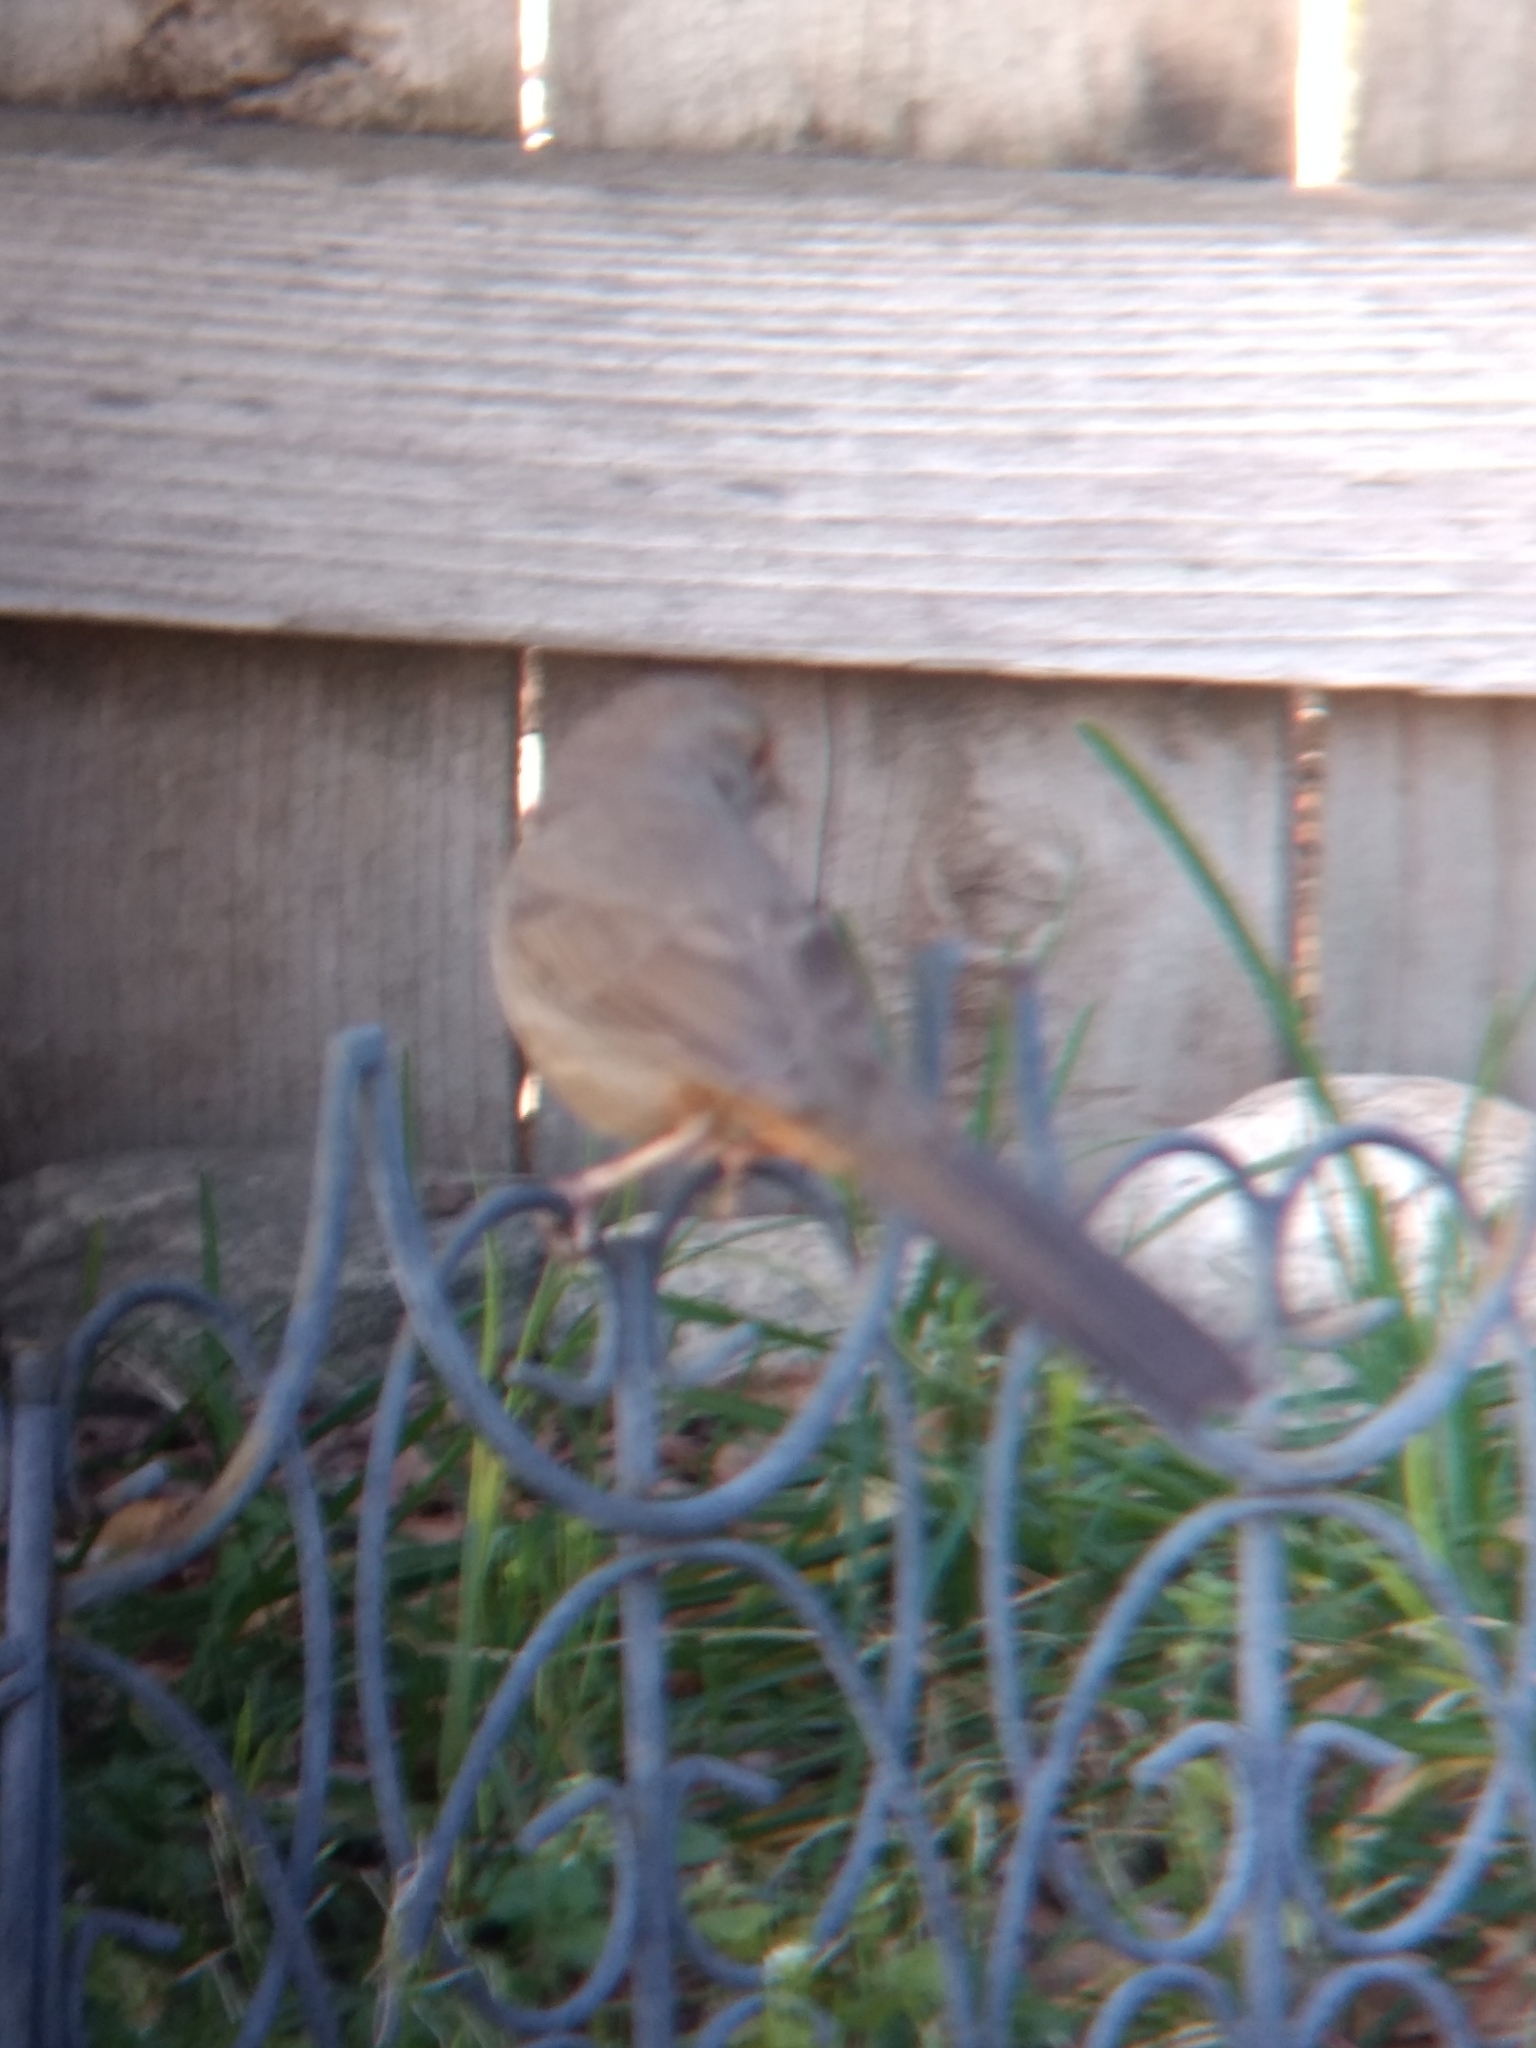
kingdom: Animalia
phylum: Chordata
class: Aves
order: Passeriformes
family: Passerellidae
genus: Melozone
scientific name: Melozone crissalis
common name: California towhee
